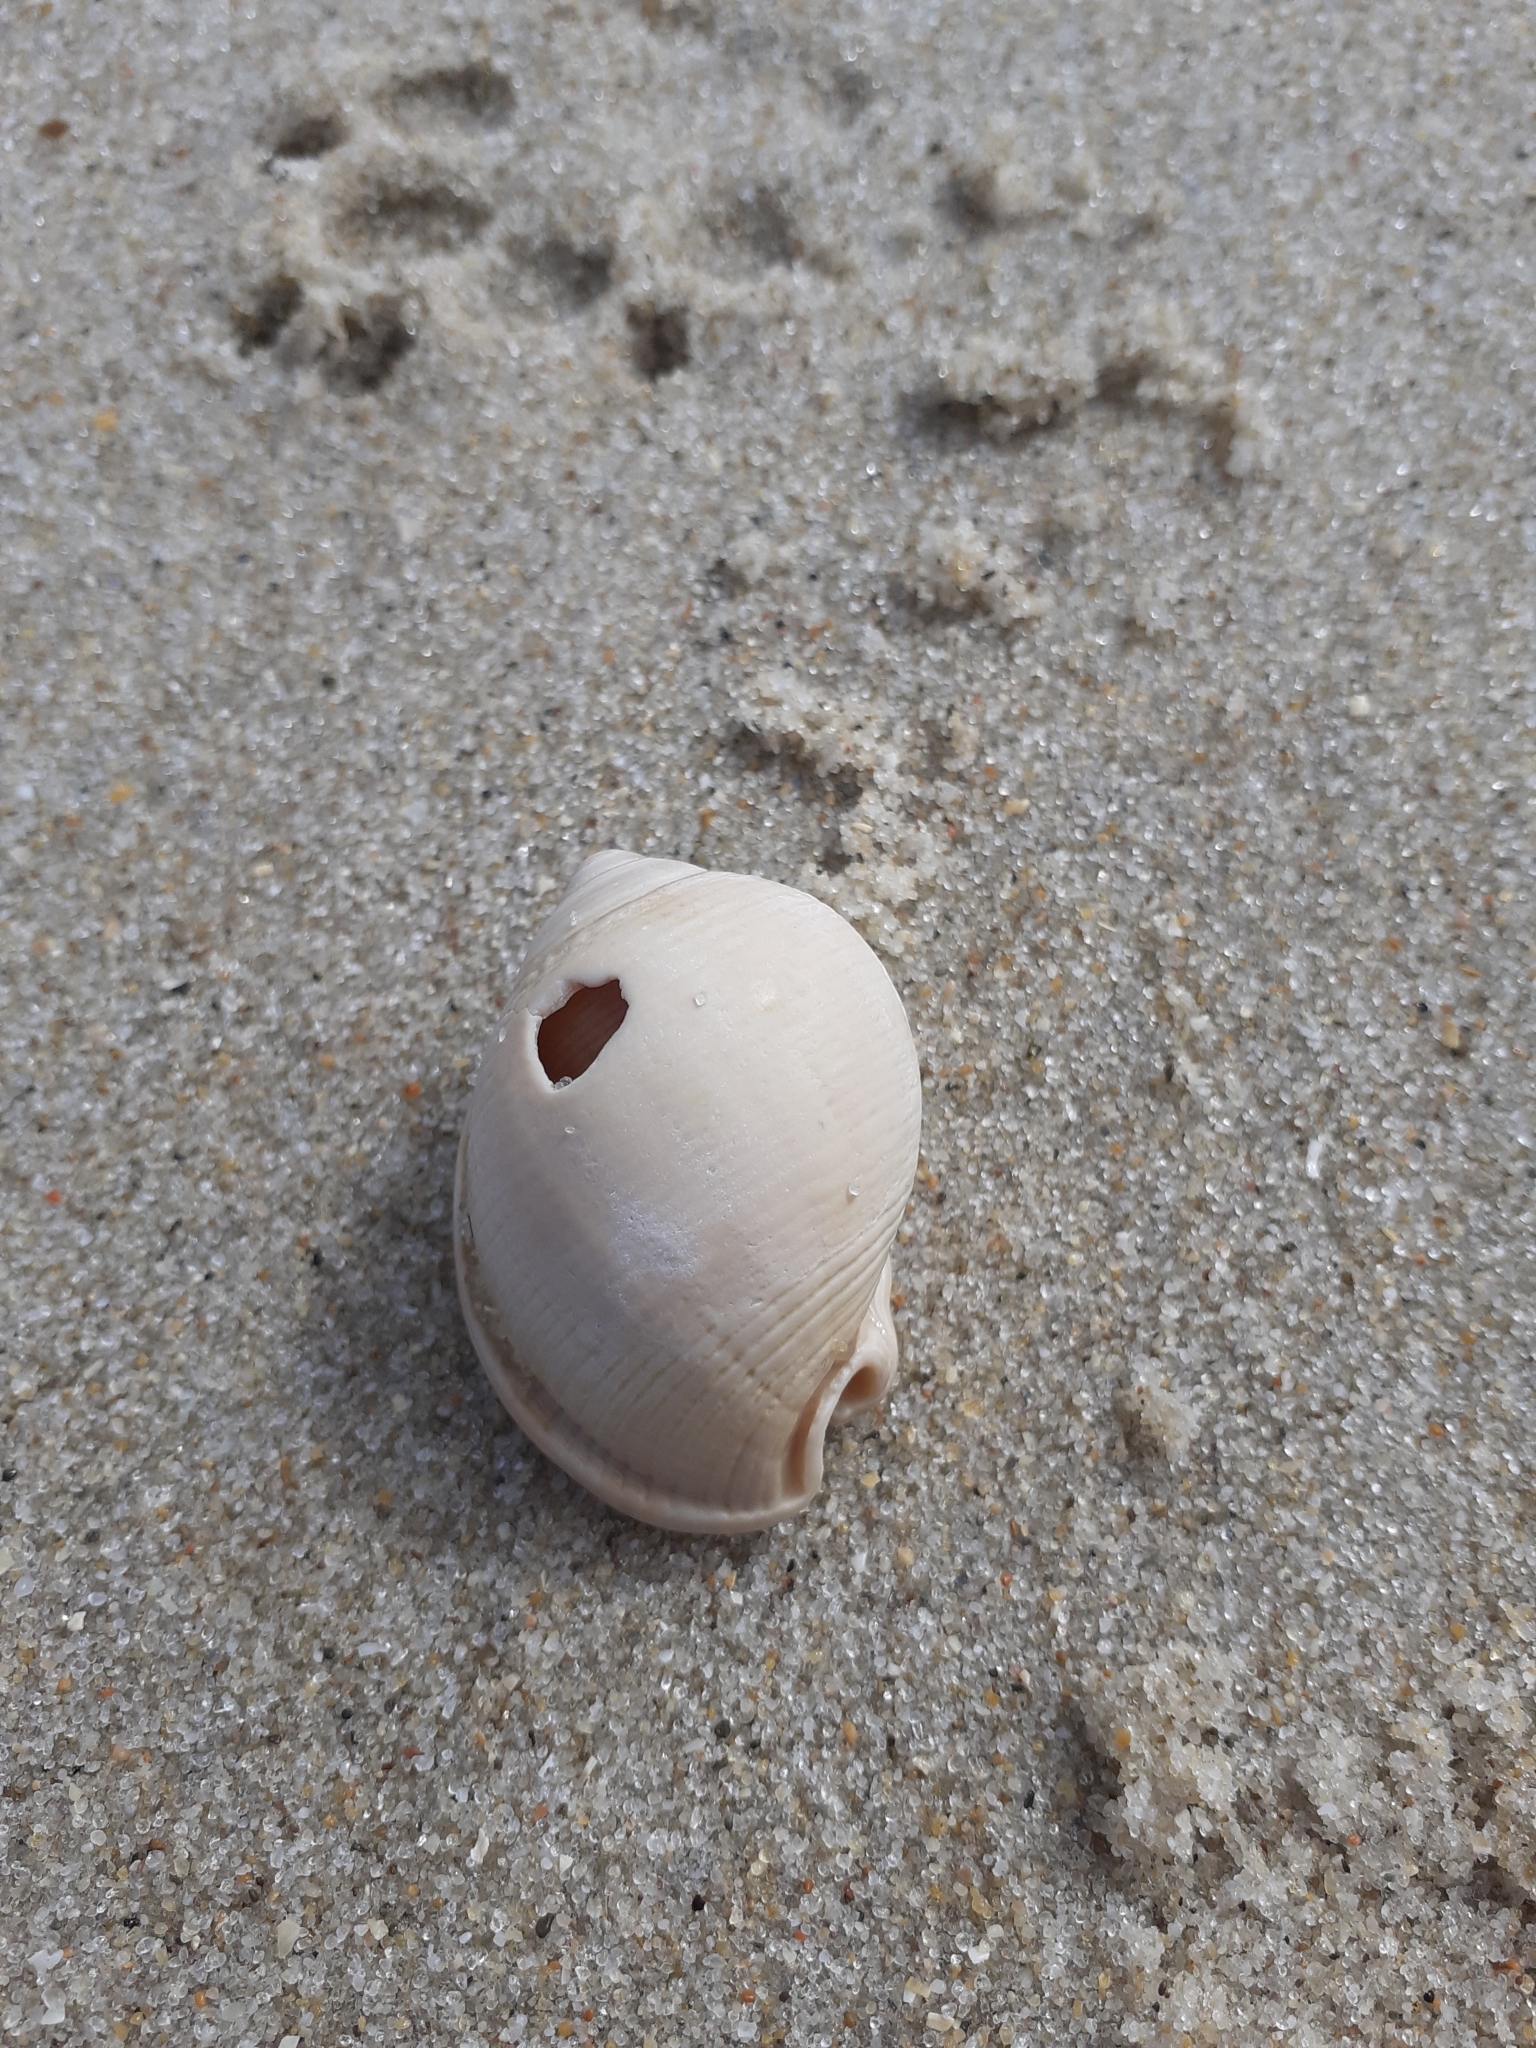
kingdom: Animalia
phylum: Mollusca
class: Gastropoda
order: Littorinimorpha
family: Cassidae
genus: Semicassis
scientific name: Semicassis saburon
